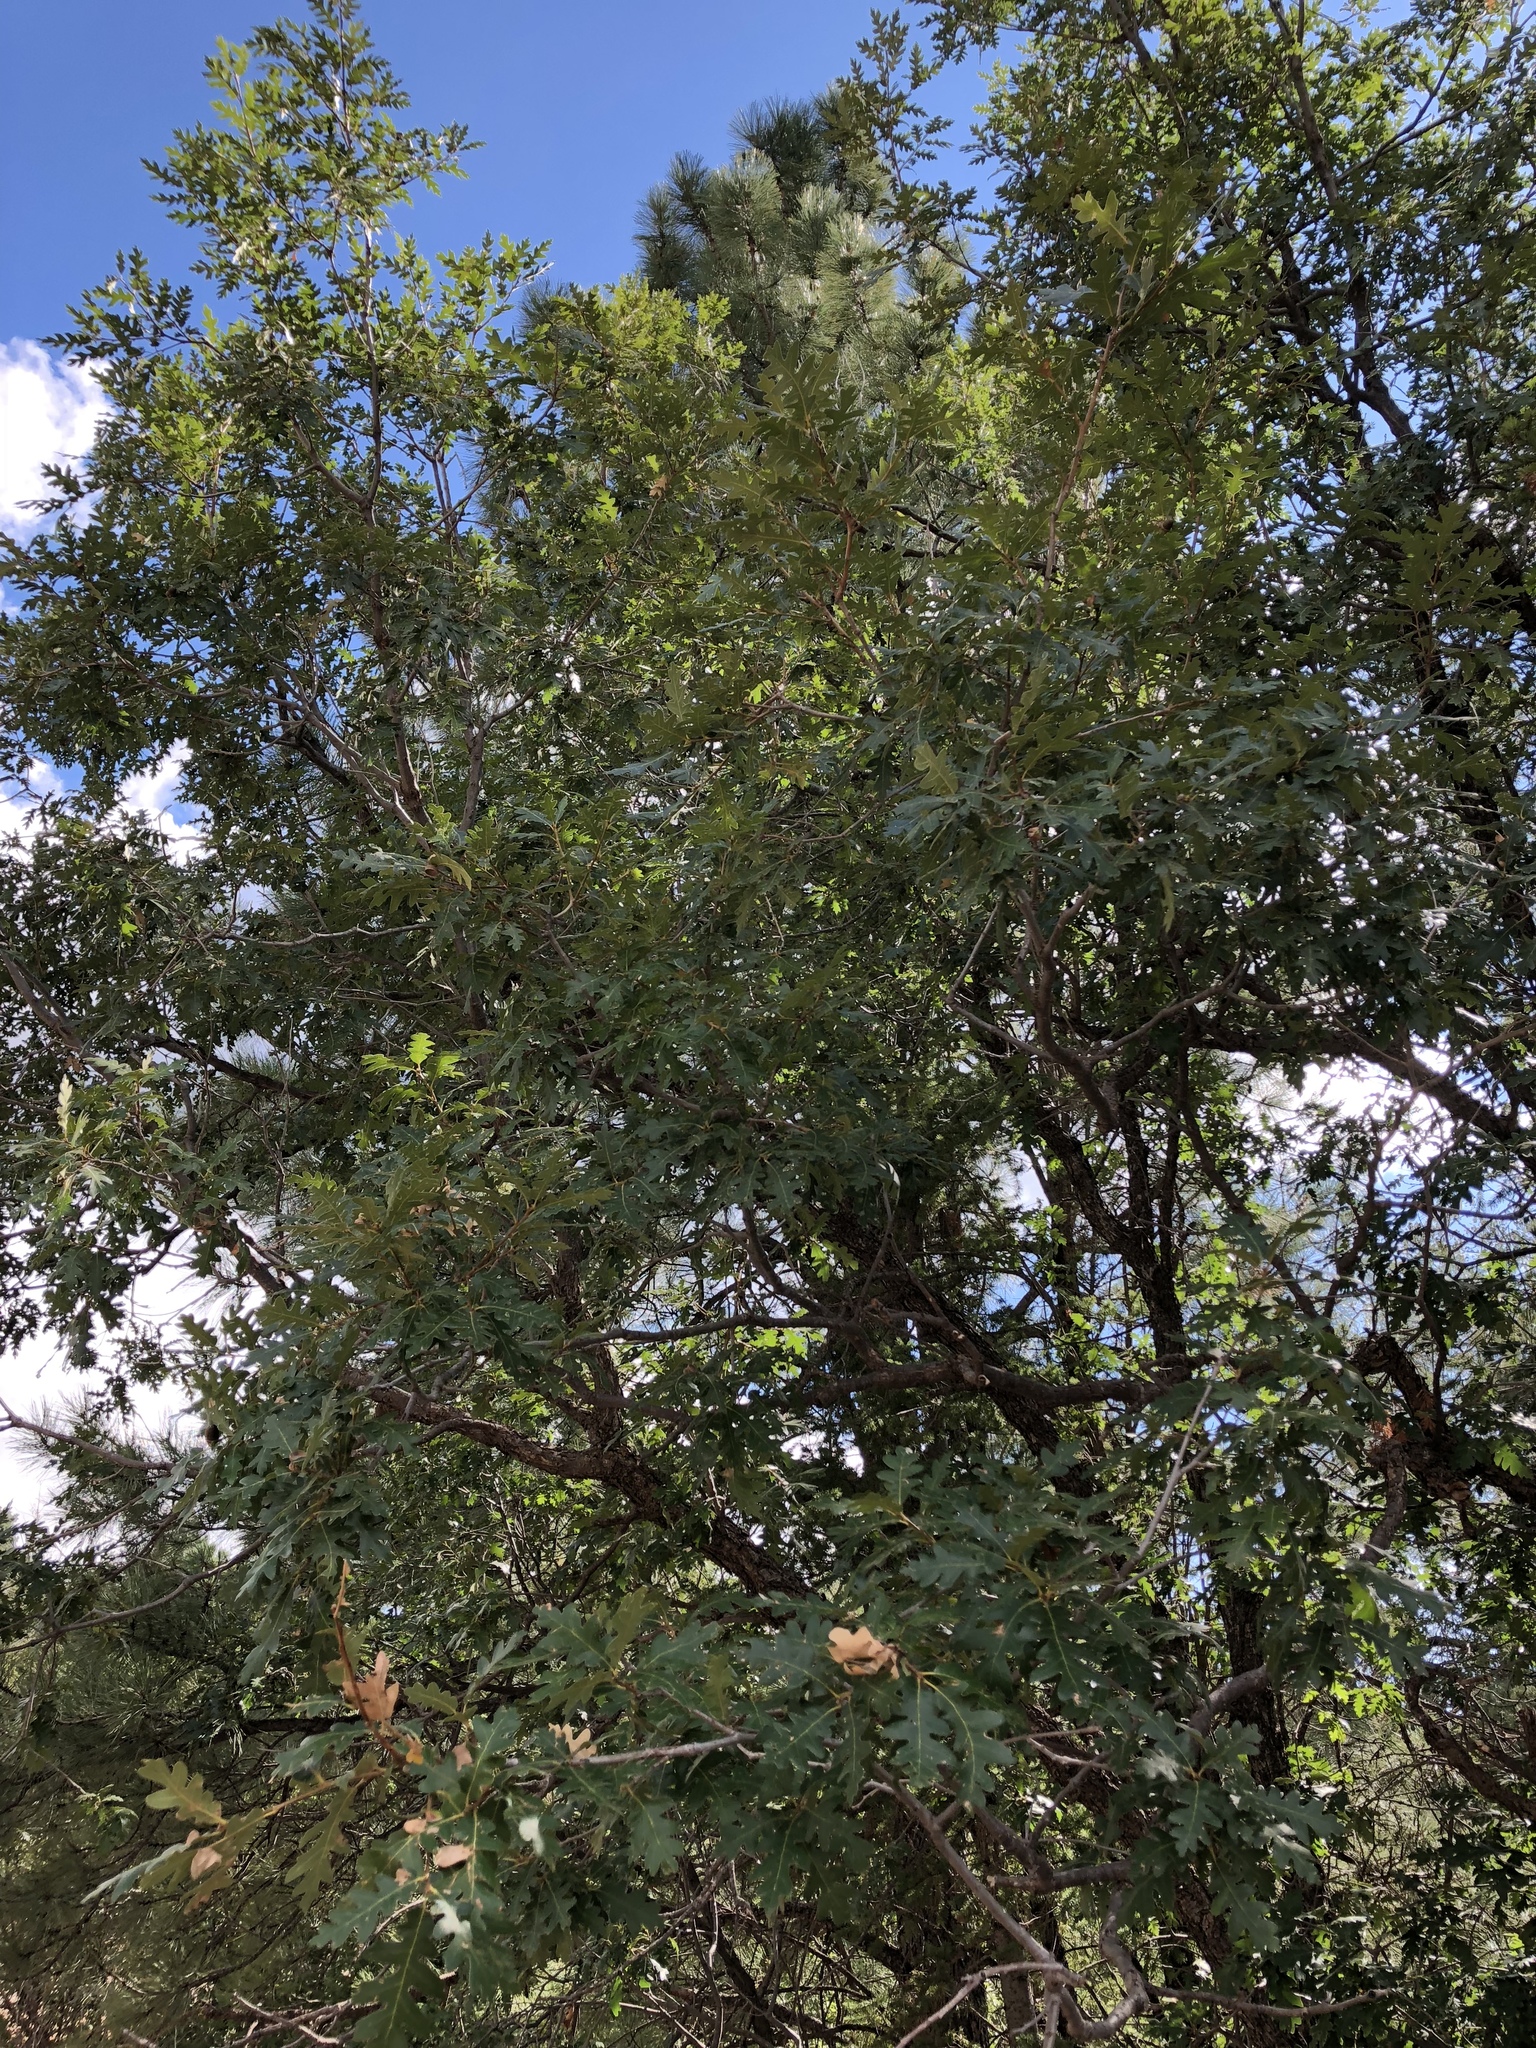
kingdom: Plantae
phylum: Tracheophyta
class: Magnoliopsida
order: Fagales
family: Fagaceae
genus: Quercus
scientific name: Quercus gambelii
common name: Gambel oak
